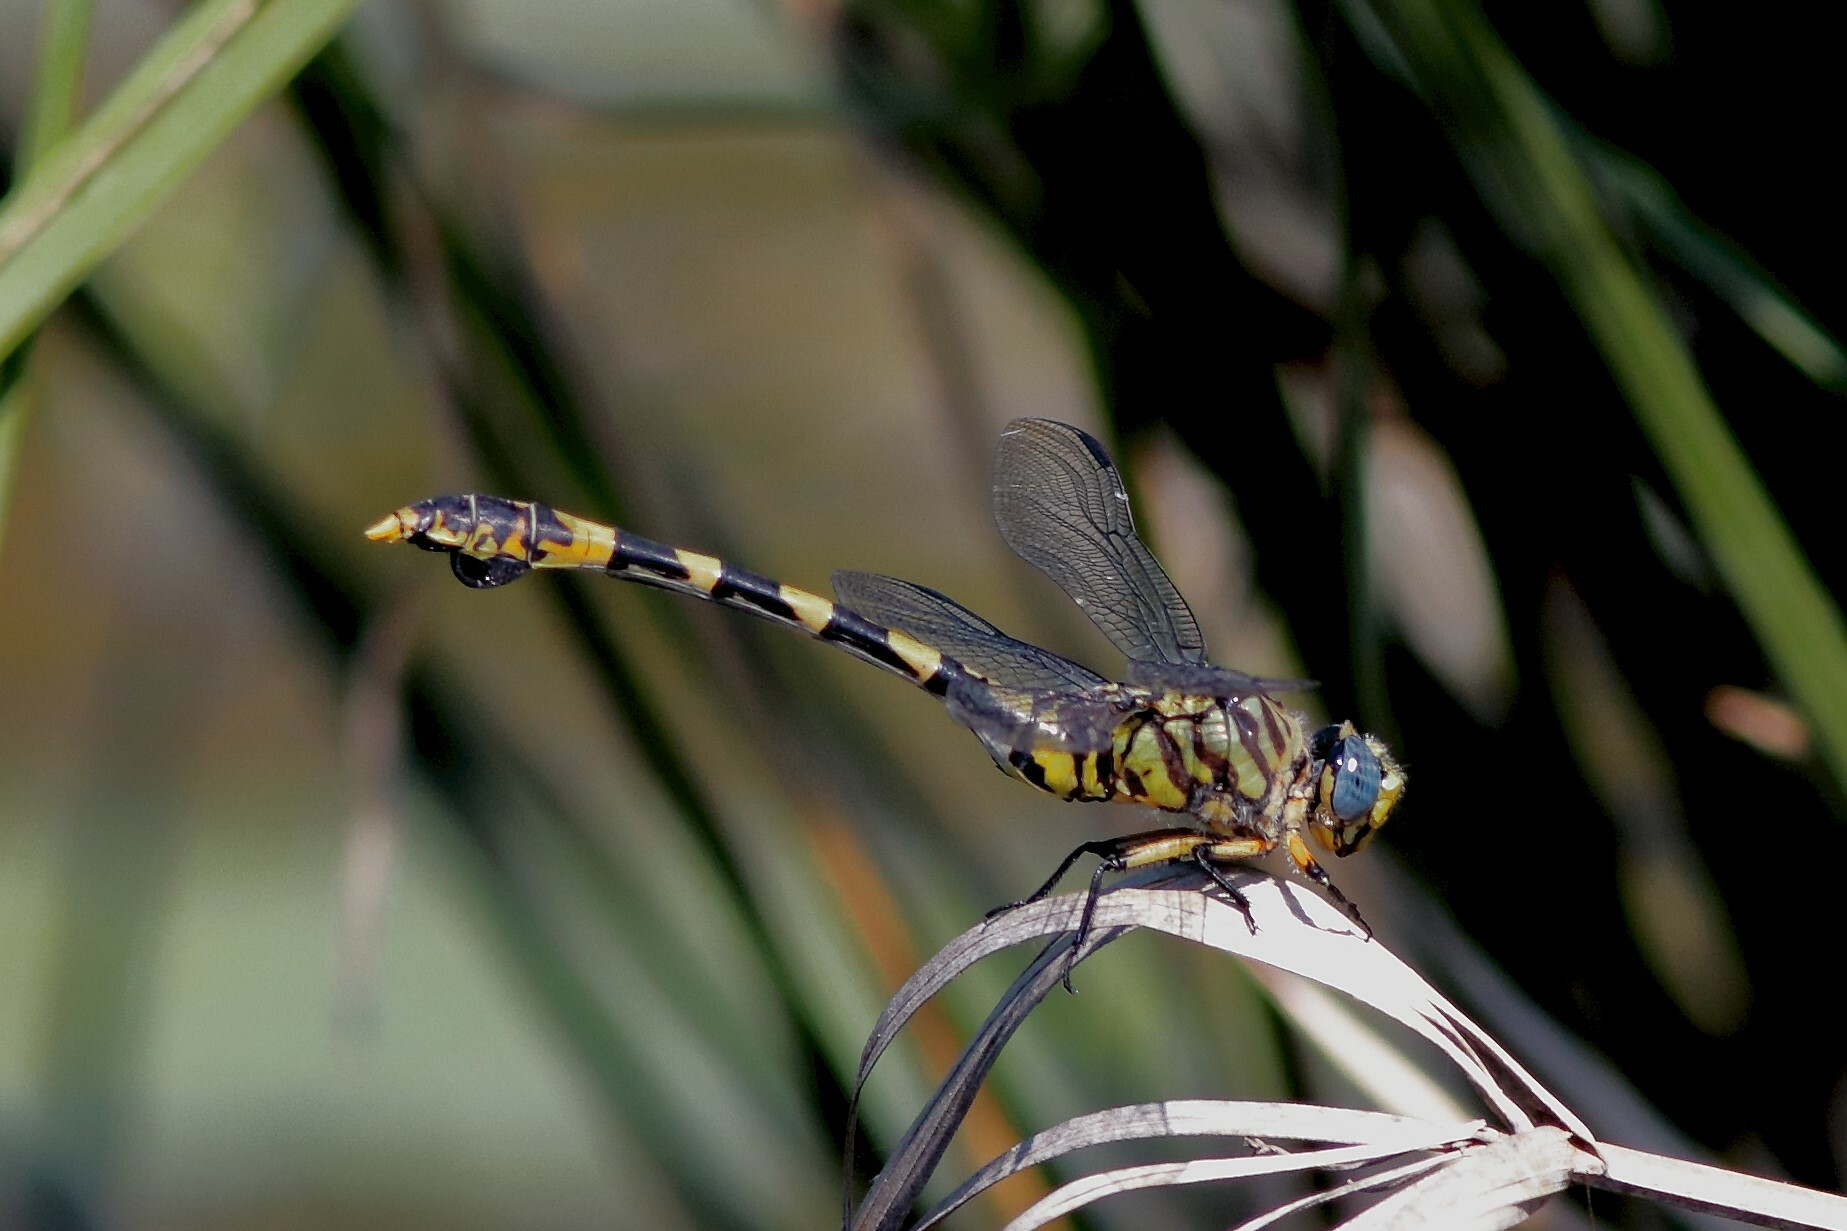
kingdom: Animalia
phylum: Arthropoda
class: Insecta
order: Odonata
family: Gomphidae
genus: Ictinogomphus
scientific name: Ictinogomphus ferox
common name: Common tiger
